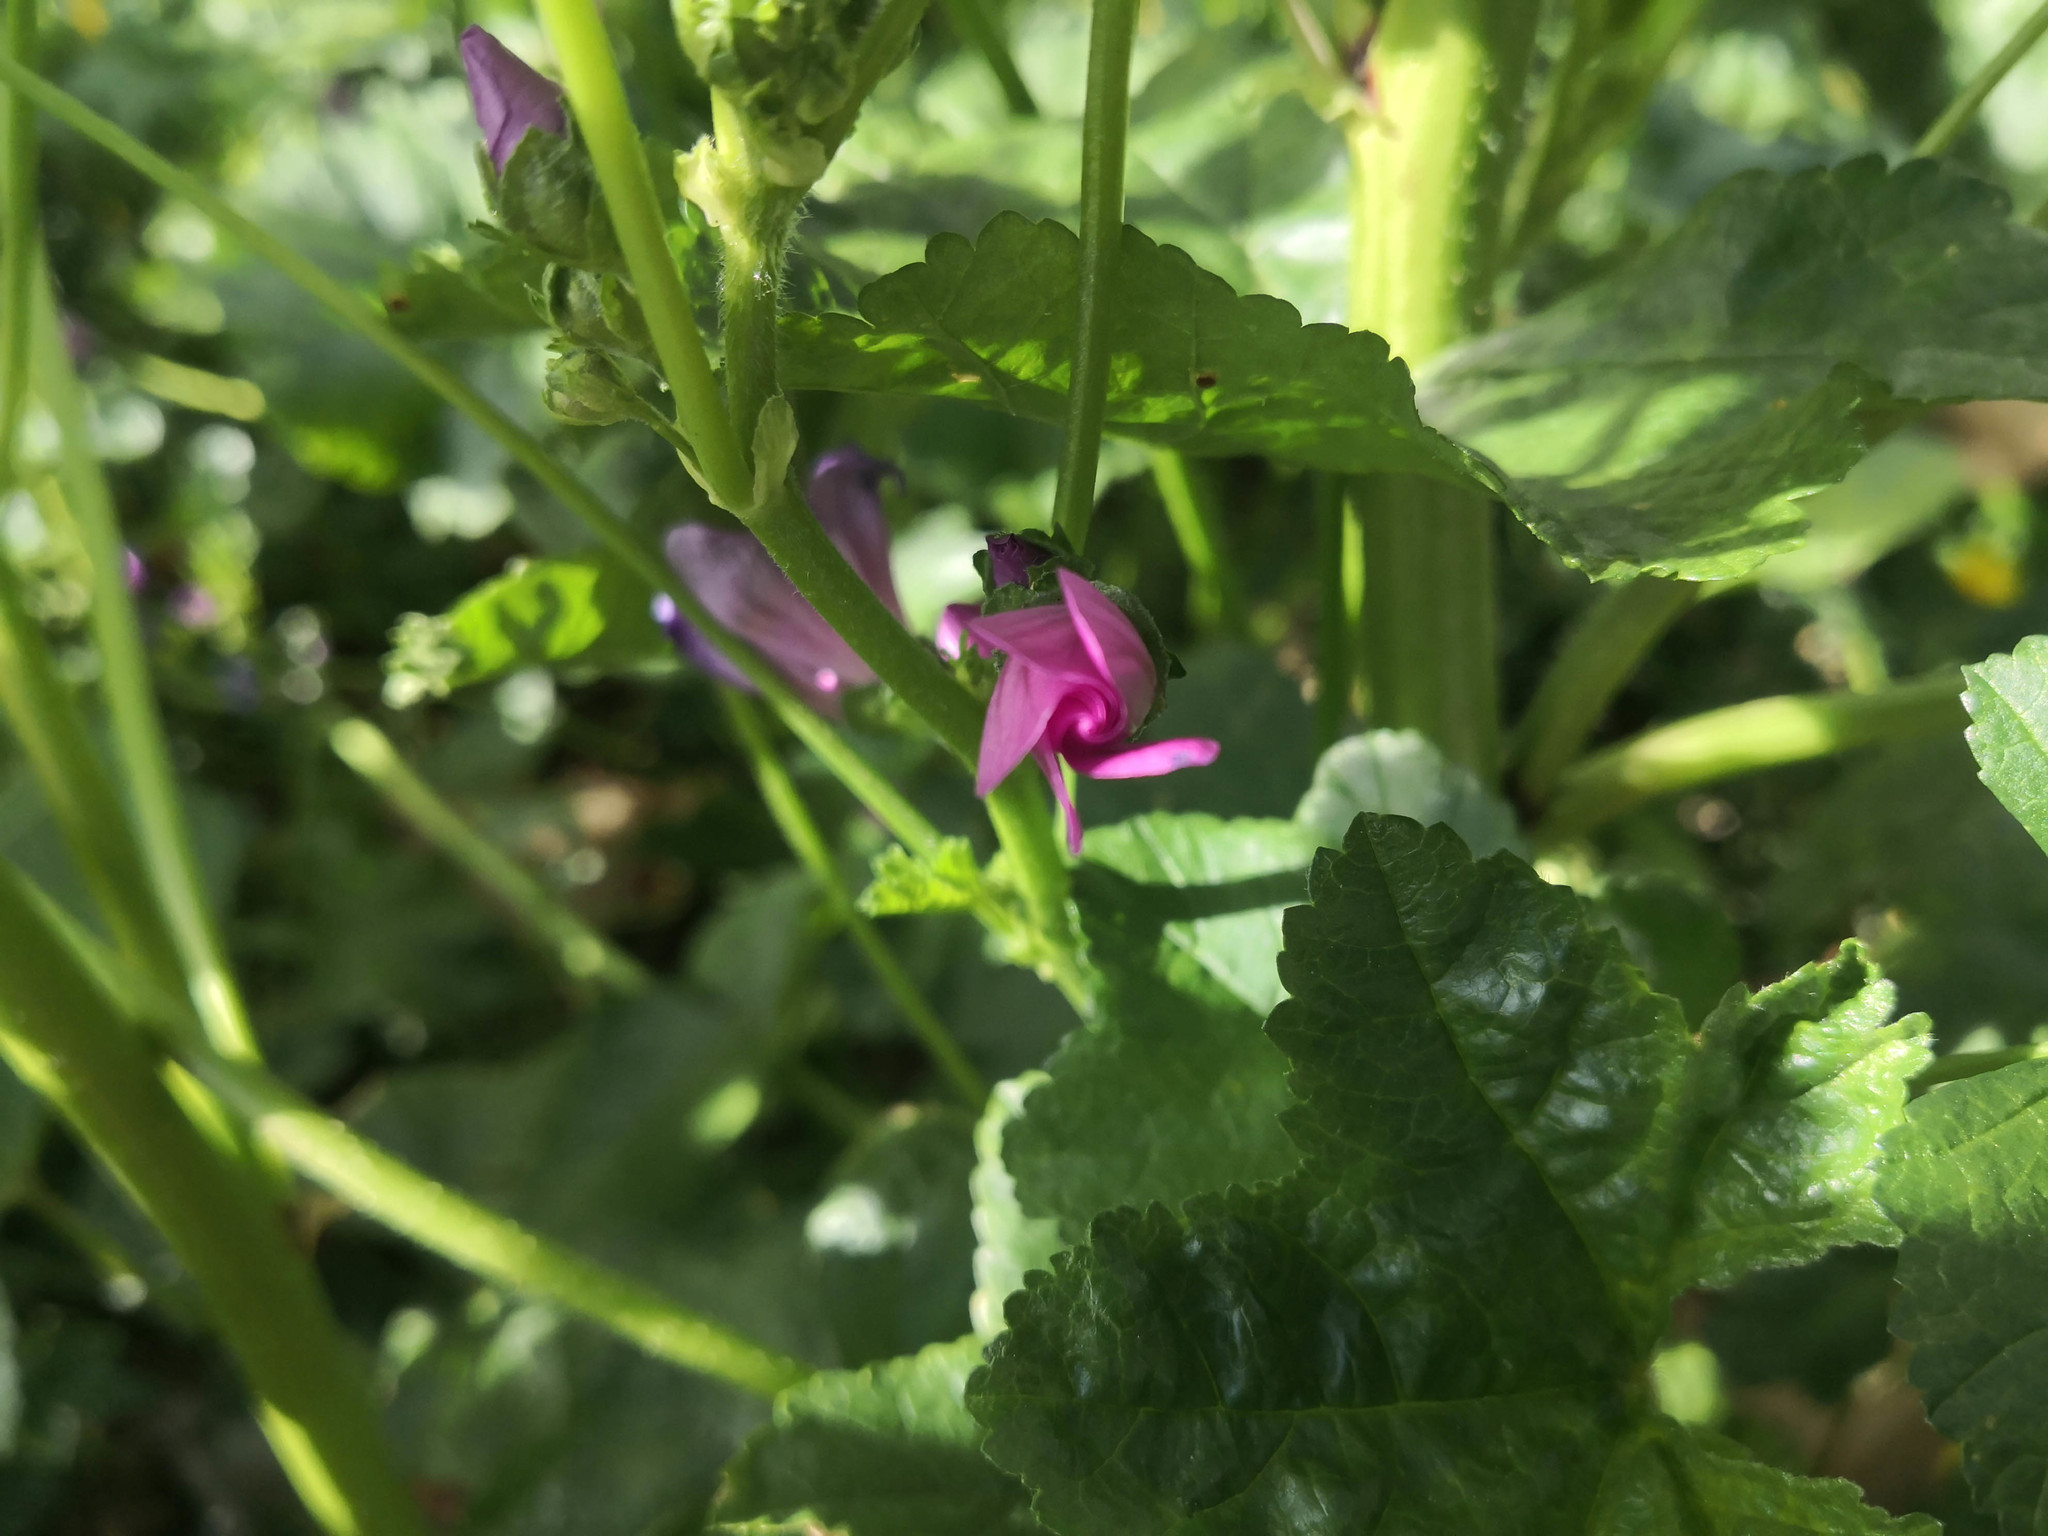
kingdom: Plantae
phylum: Tracheophyta
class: Magnoliopsida
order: Malvales
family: Malvaceae
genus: Malva
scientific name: Malva sylvestris
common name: Common mallow
